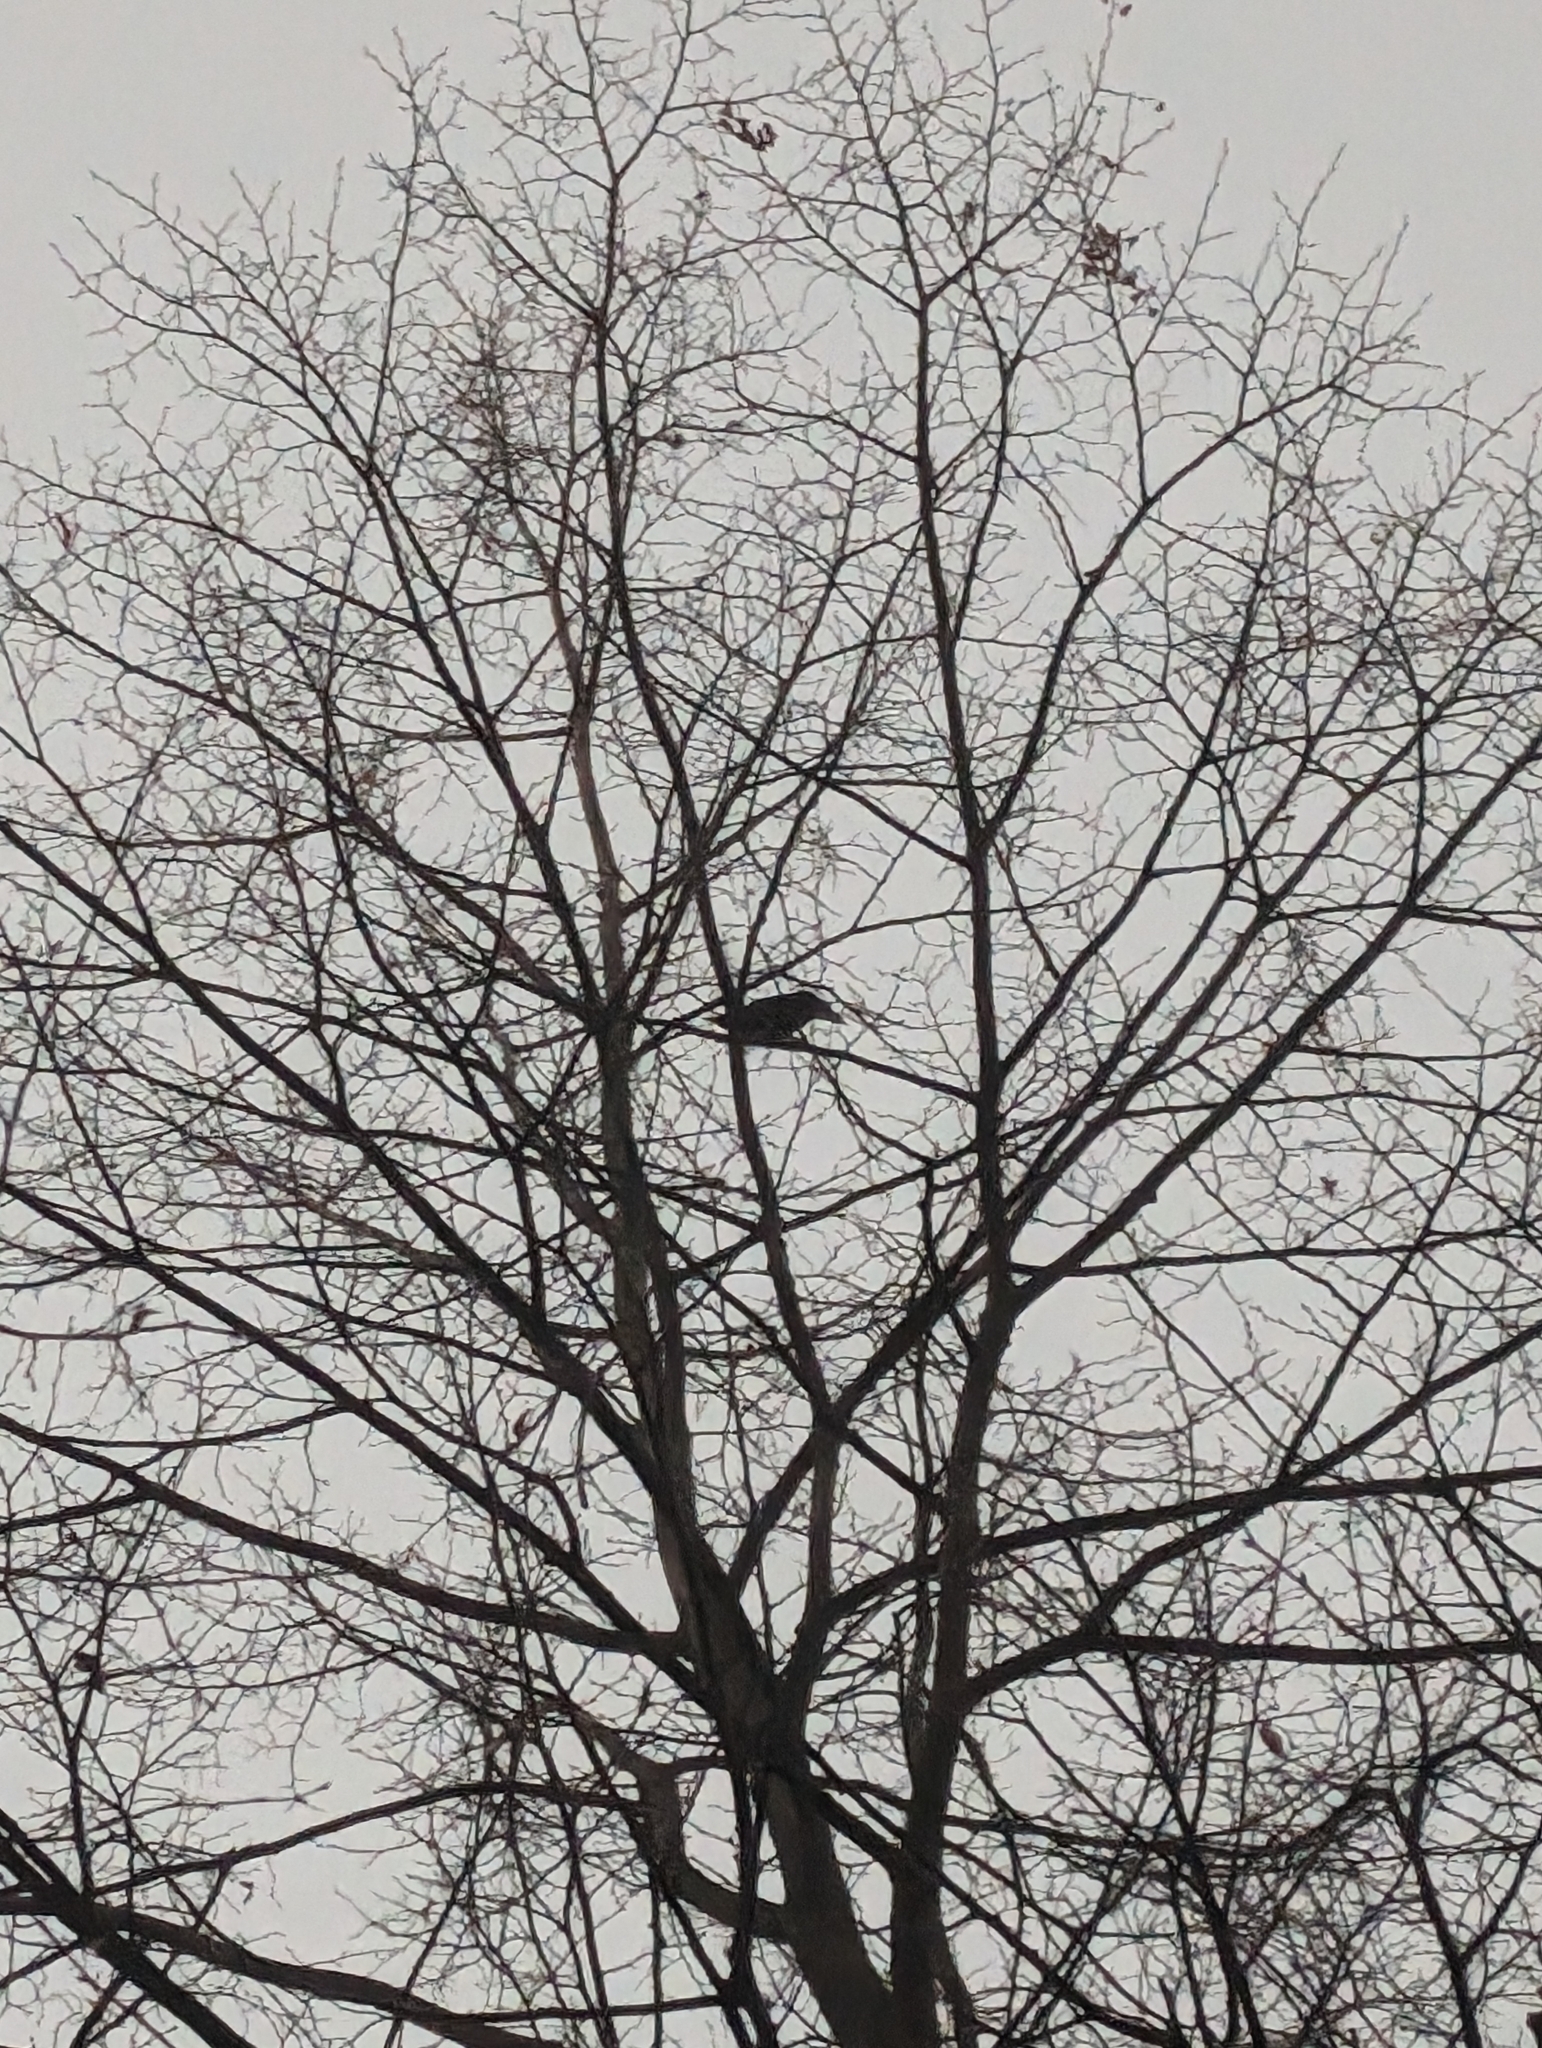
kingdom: Animalia
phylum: Chordata
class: Aves
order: Passeriformes
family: Turdidae
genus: Turdus
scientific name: Turdus merula
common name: Common blackbird
